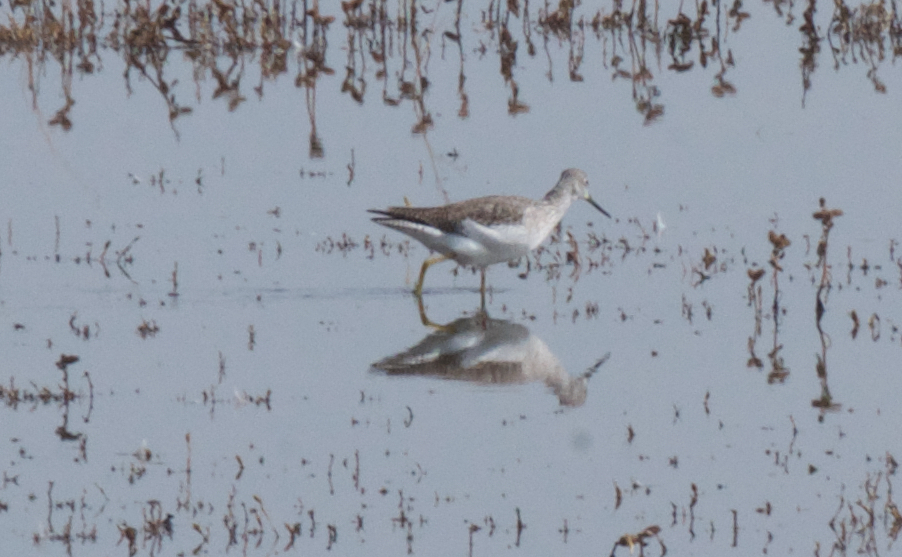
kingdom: Animalia
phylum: Chordata
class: Aves
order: Charadriiformes
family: Scolopacidae
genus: Tringa
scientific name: Tringa melanoleuca
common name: Greater yellowlegs
